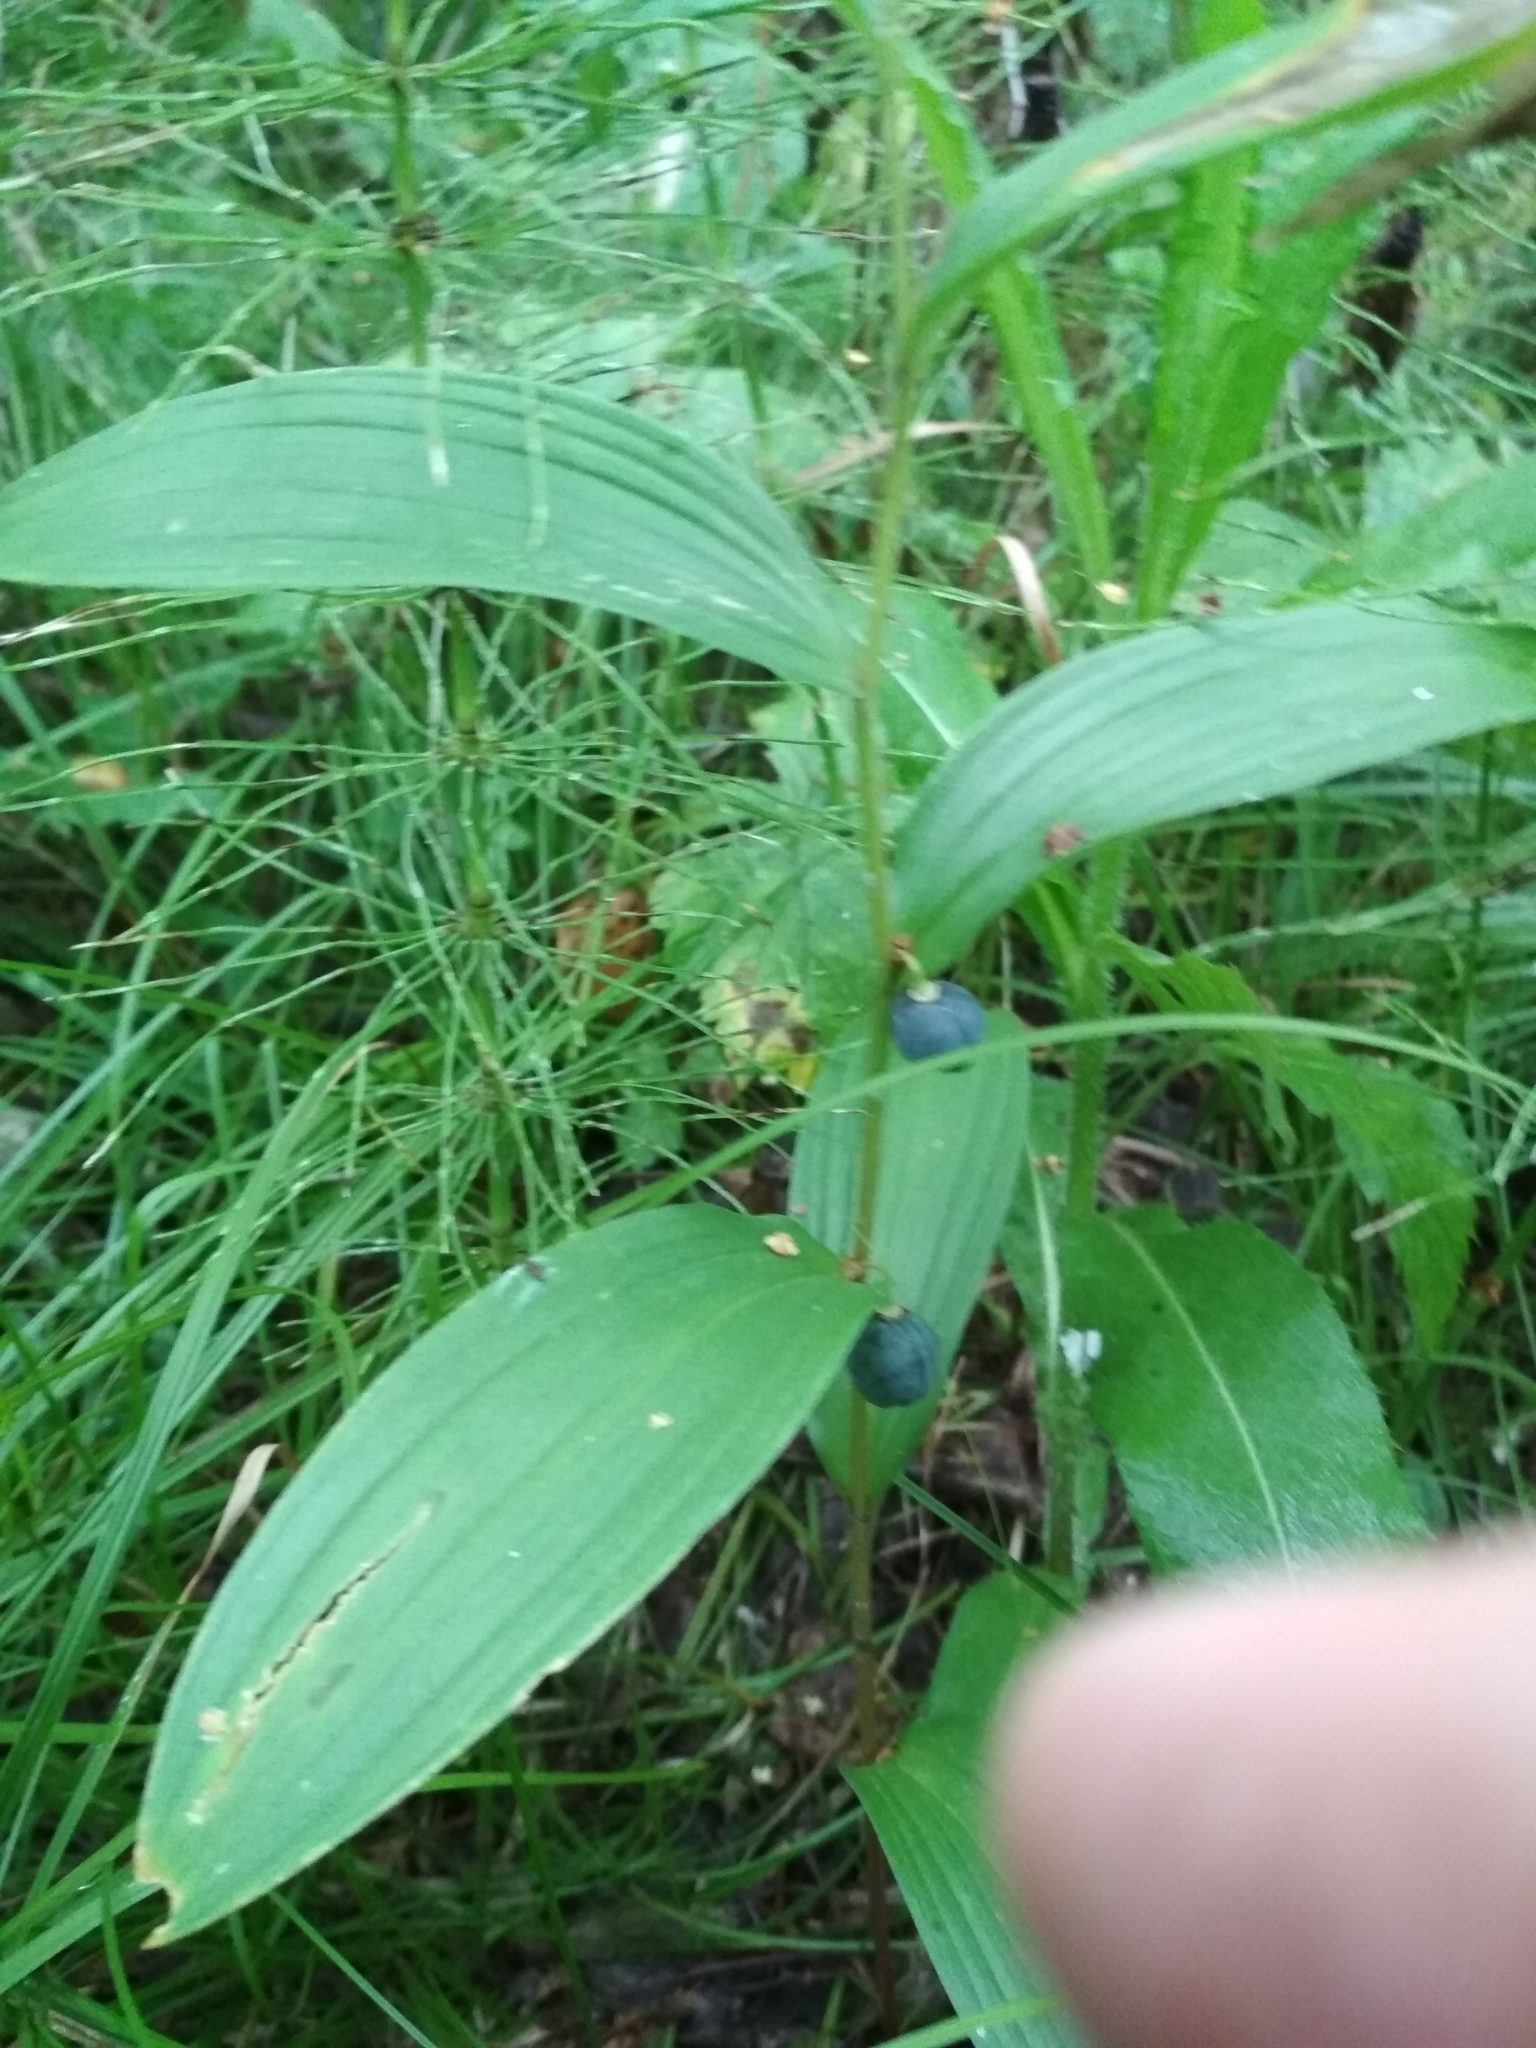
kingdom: Plantae
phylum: Tracheophyta
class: Liliopsida
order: Asparagales
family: Asparagaceae
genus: Polygonatum
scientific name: Polygonatum humile
